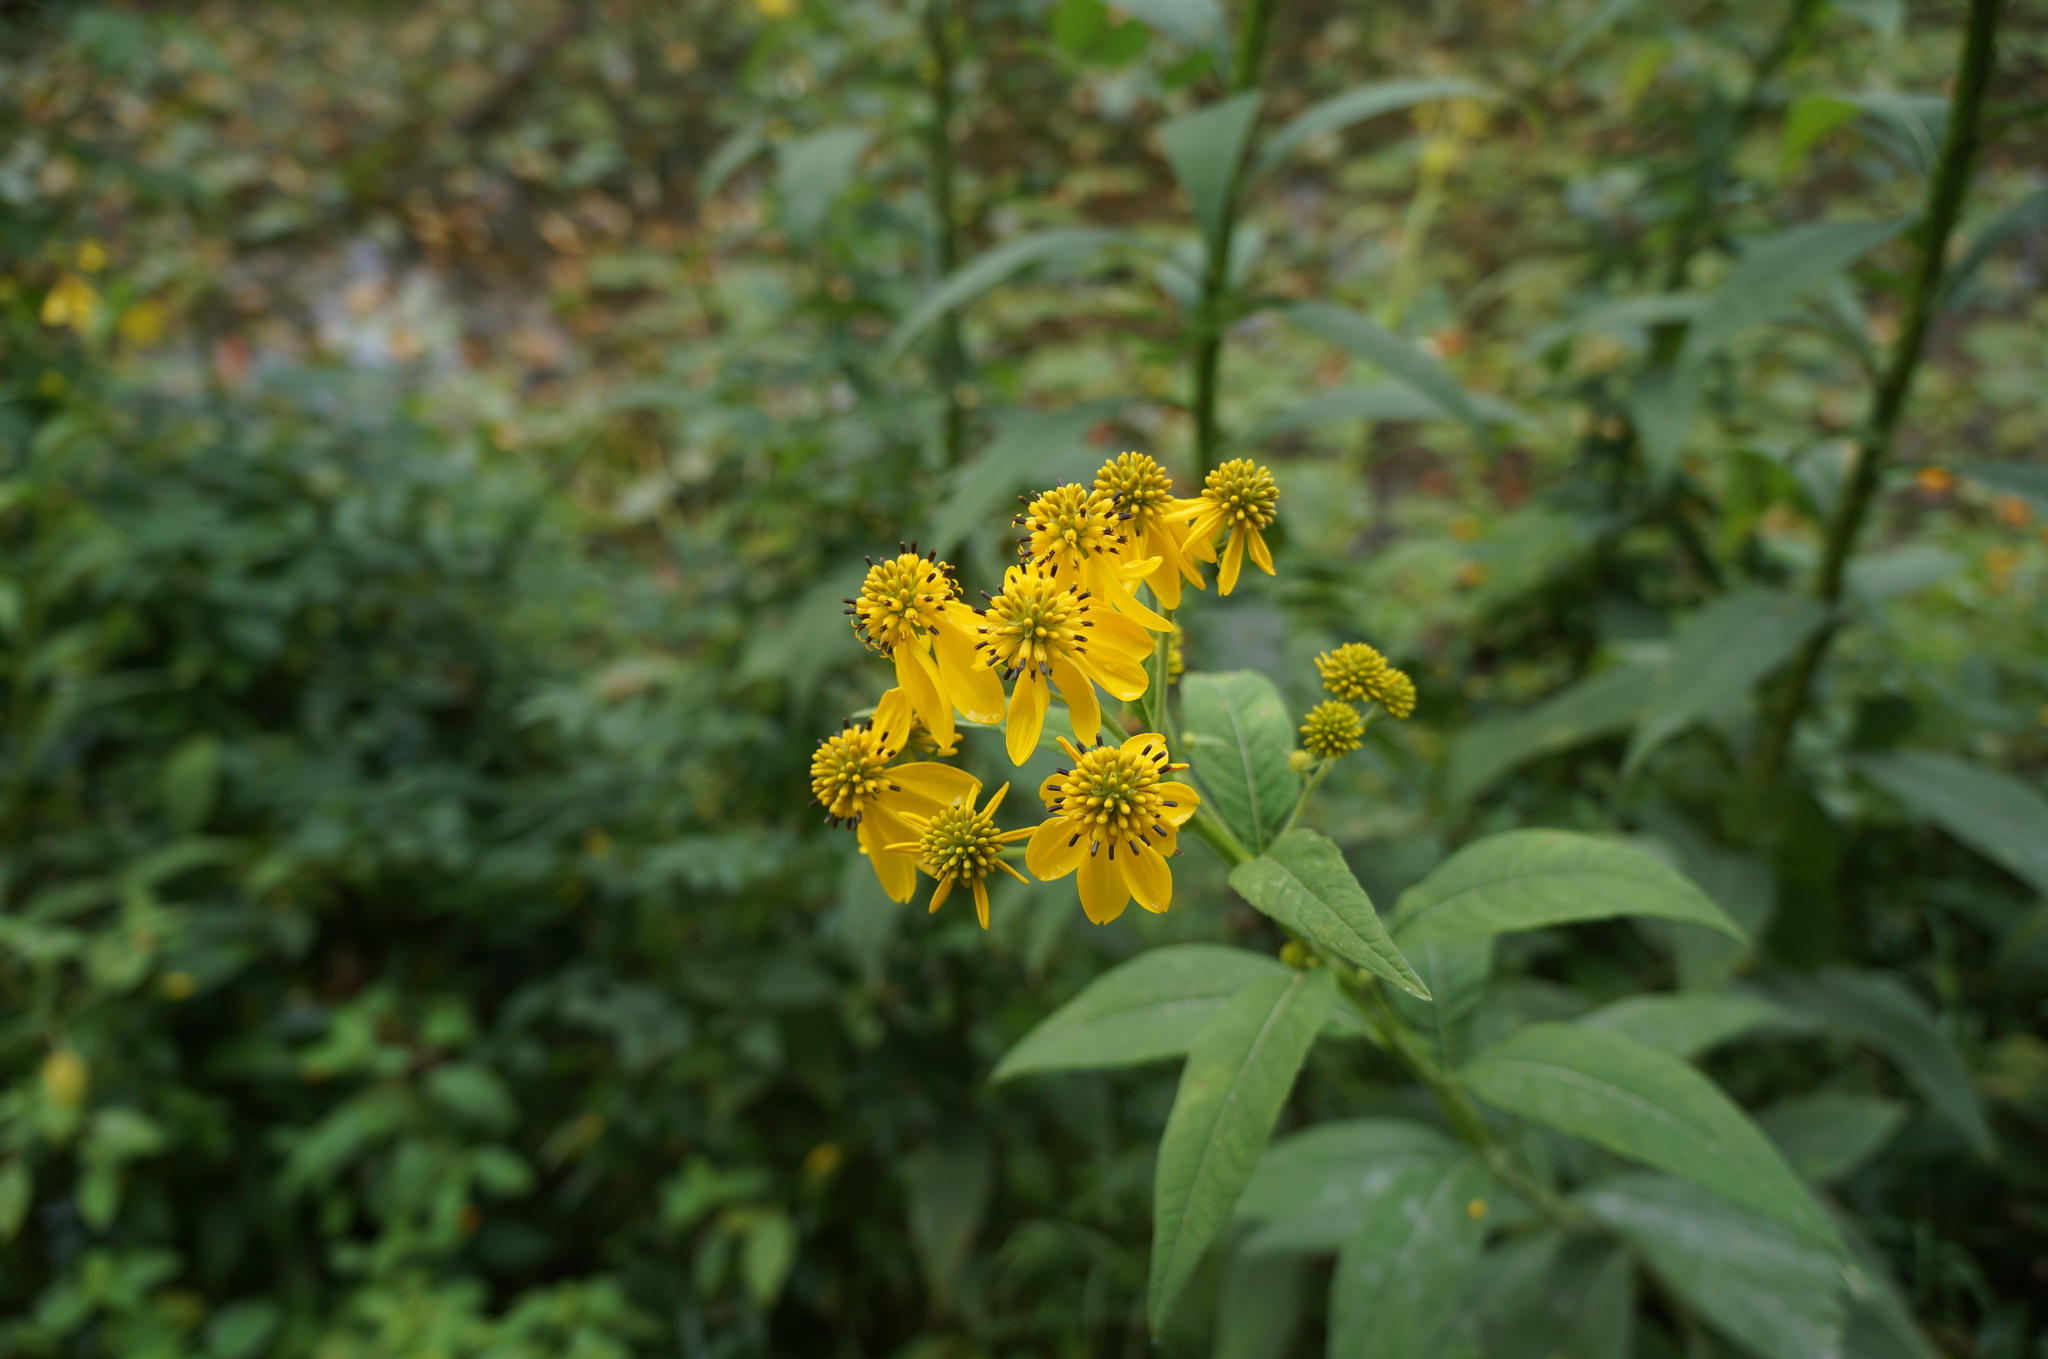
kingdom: Plantae
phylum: Tracheophyta
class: Magnoliopsida
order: Asterales
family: Asteraceae
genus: Verbesina
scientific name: Verbesina alternifolia
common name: Wingstem
